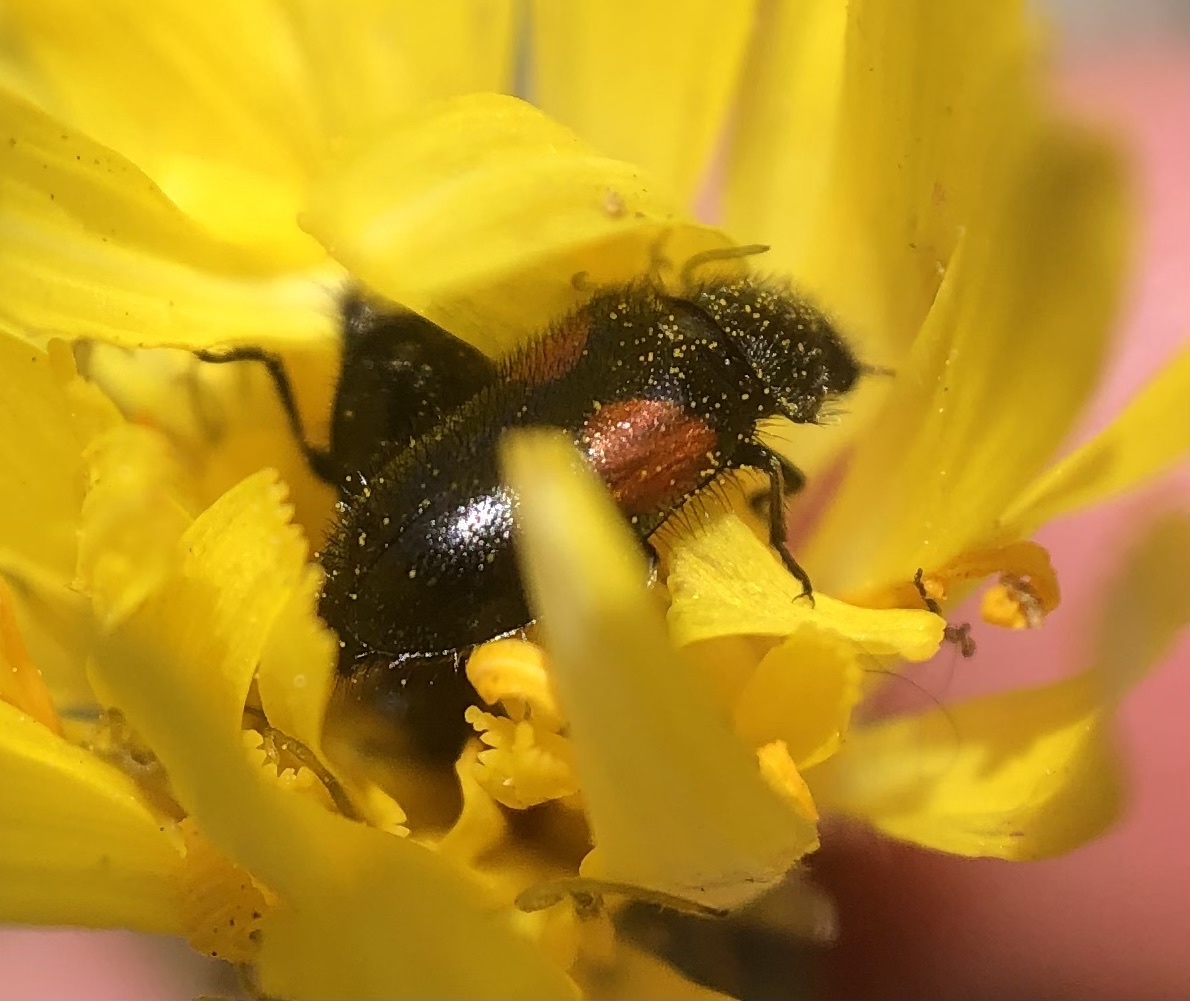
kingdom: Animalia
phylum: Arthropoda
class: Insecta
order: Coleoptera
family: Melyridae
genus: Divales
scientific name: Divales bipustulatus
